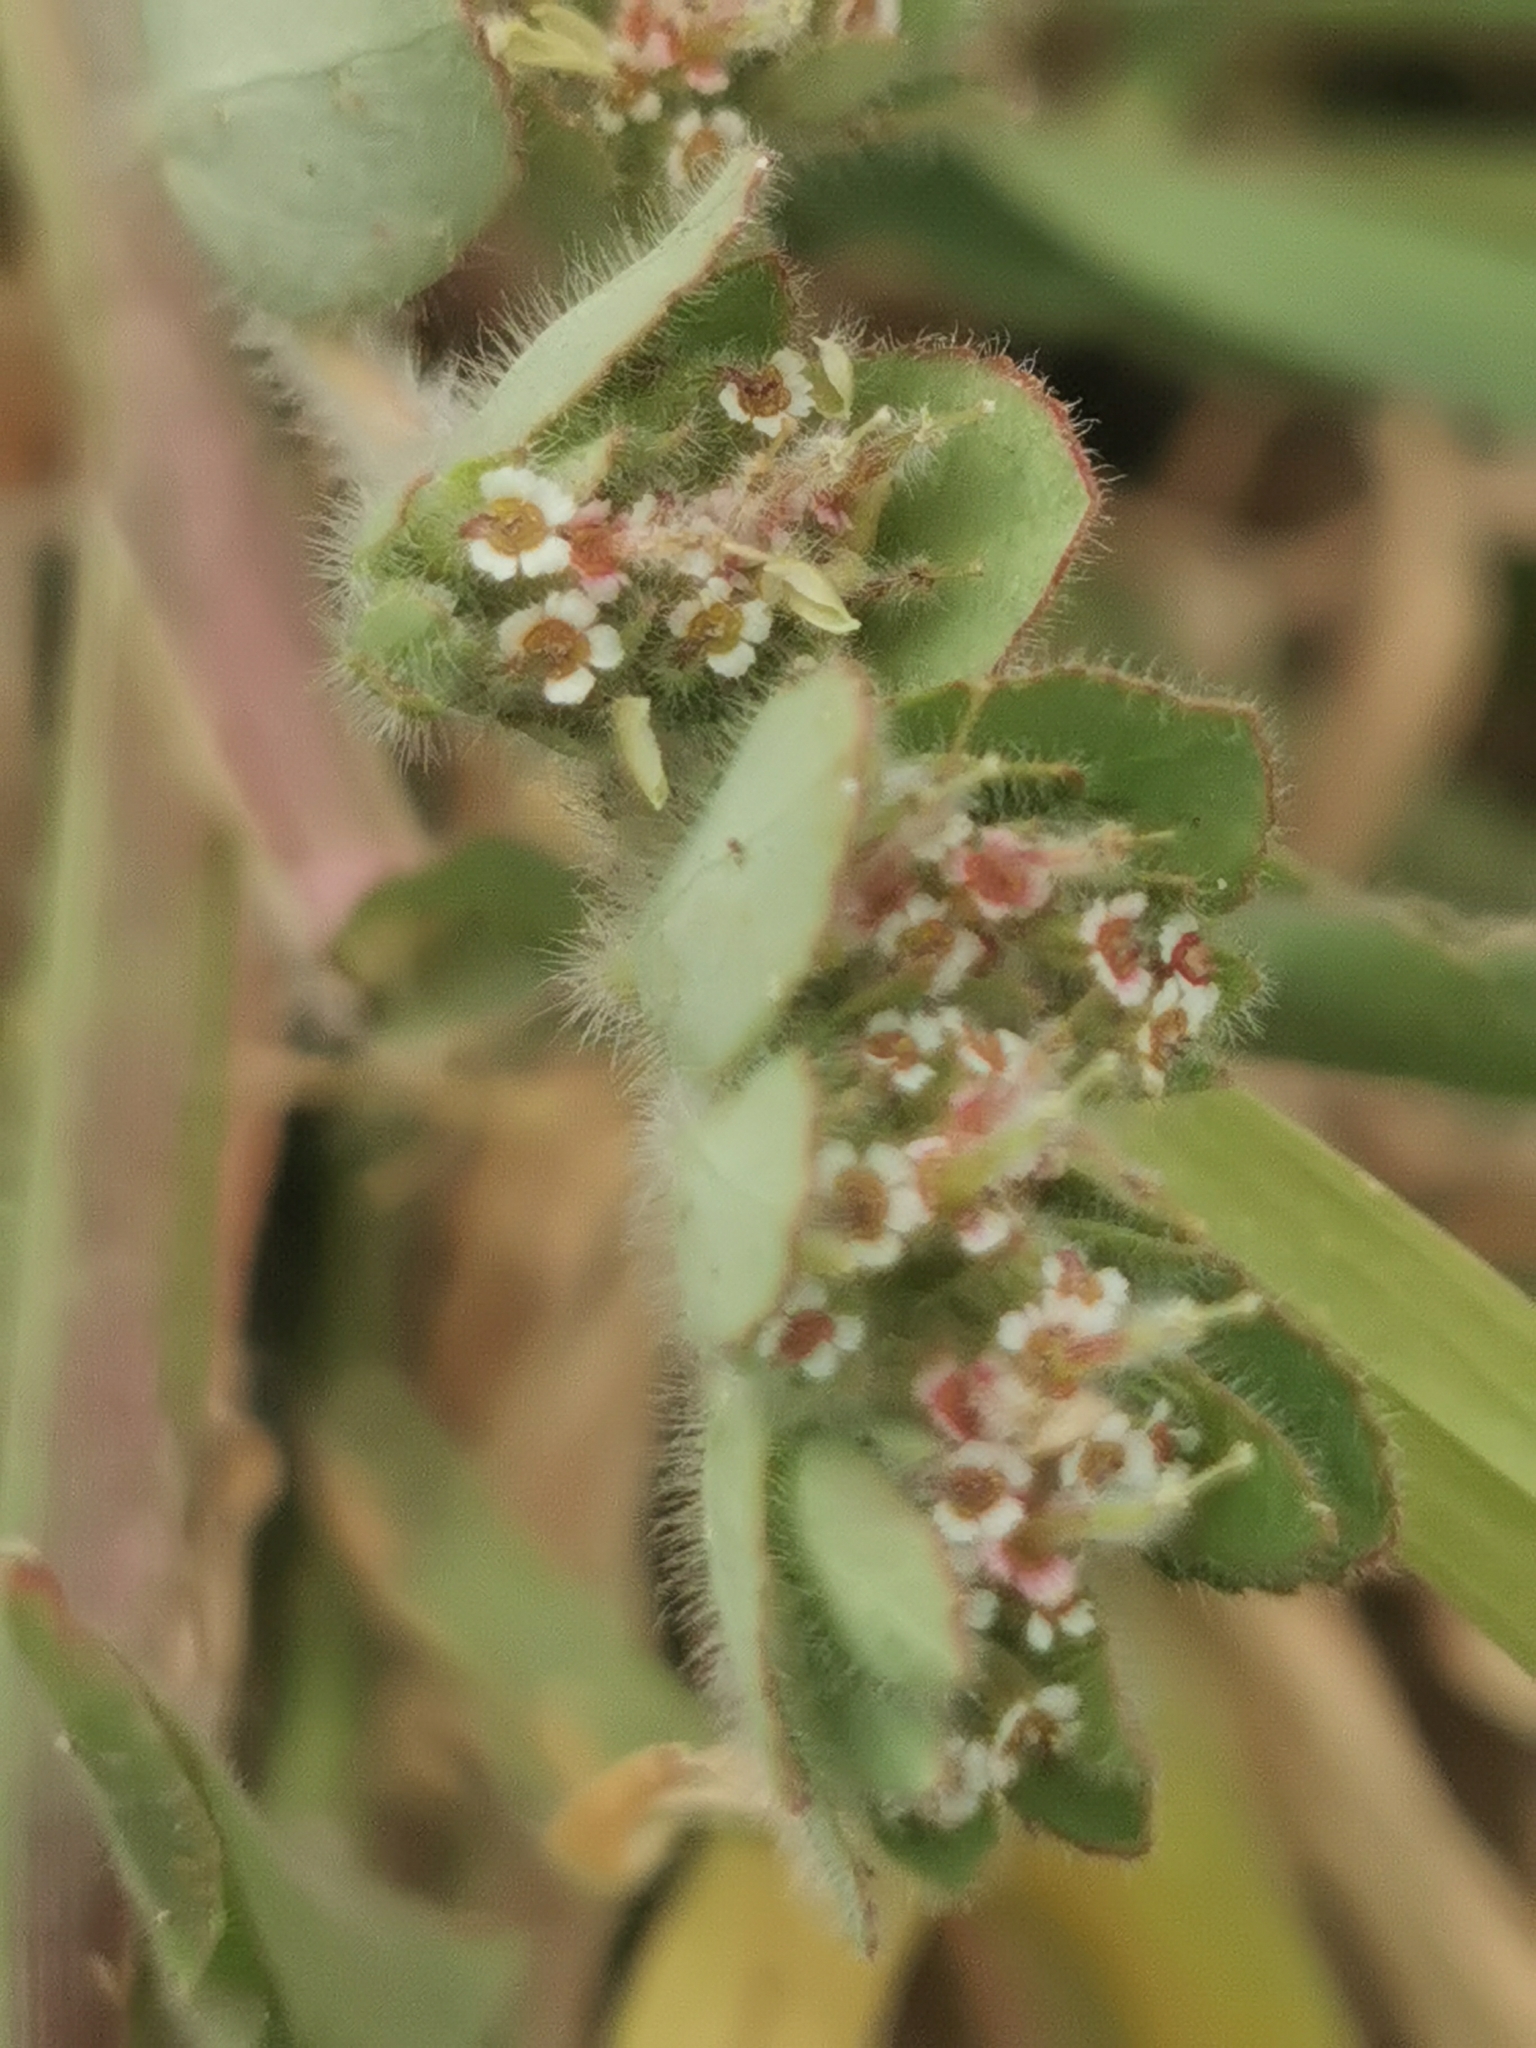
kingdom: Plantae
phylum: Tracheophyta
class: Magnoliopsida
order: Malpighiales
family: Euphorbiaceae
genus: Euphorbia
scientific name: Euphorbia velleriflora
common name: Caliche sandmat
